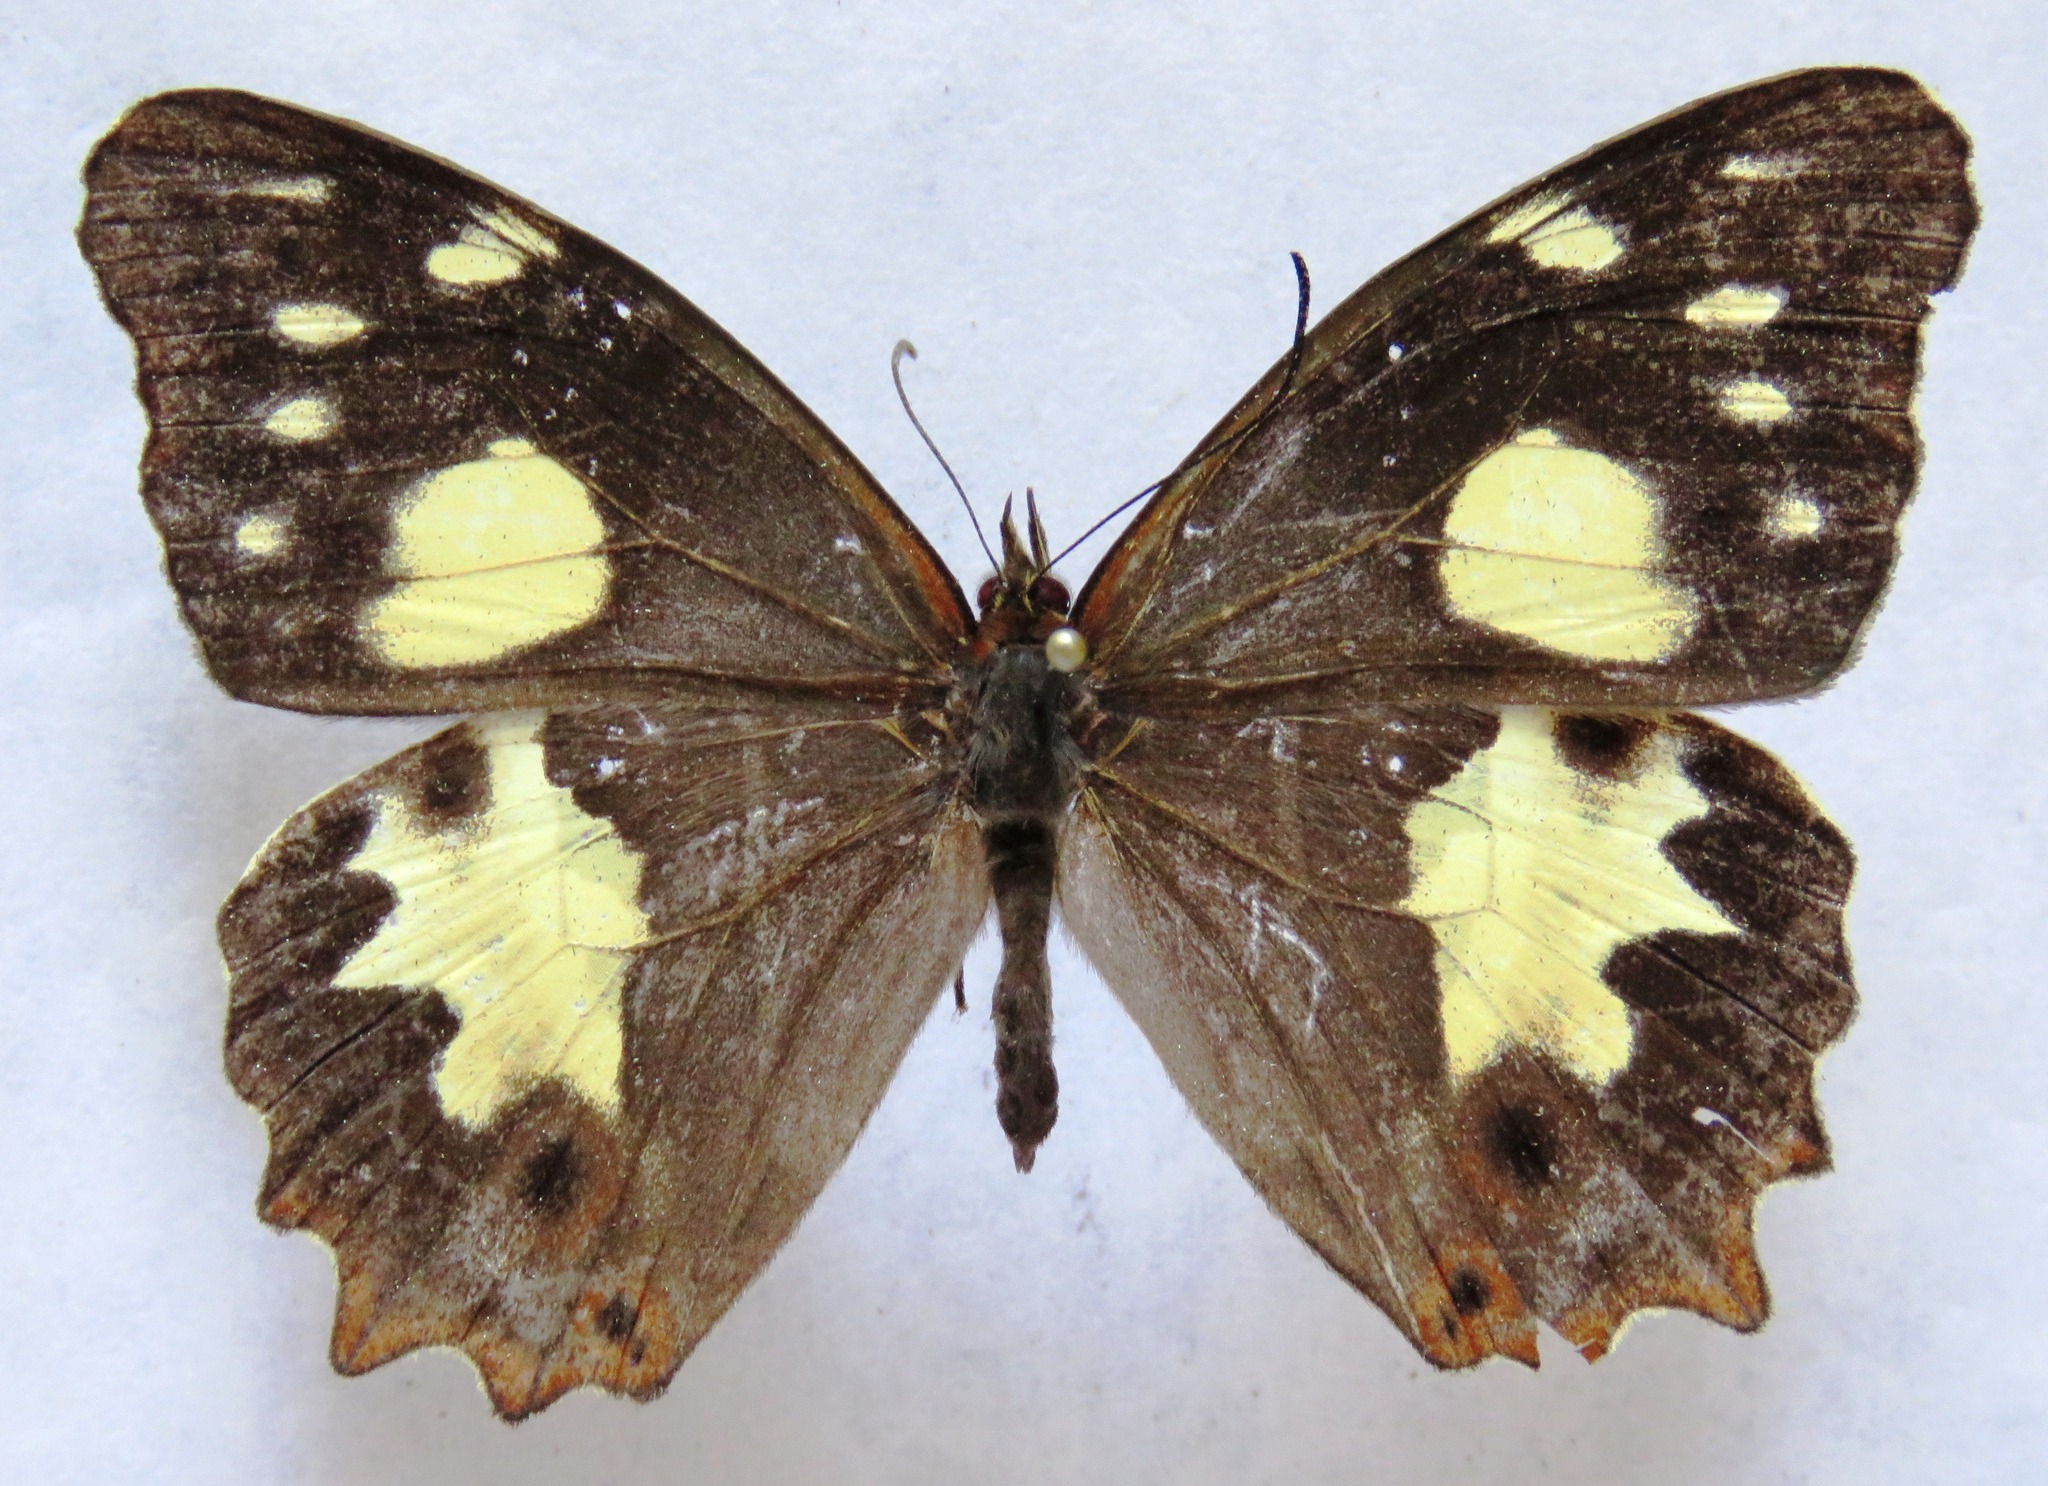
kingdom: Animalia
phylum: Arthropoda
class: Insecta
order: Lepidoptera
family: Nymphalidae
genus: Oxeoschistus
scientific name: Oxeoschistus tauropolis
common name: Starred oxeo
